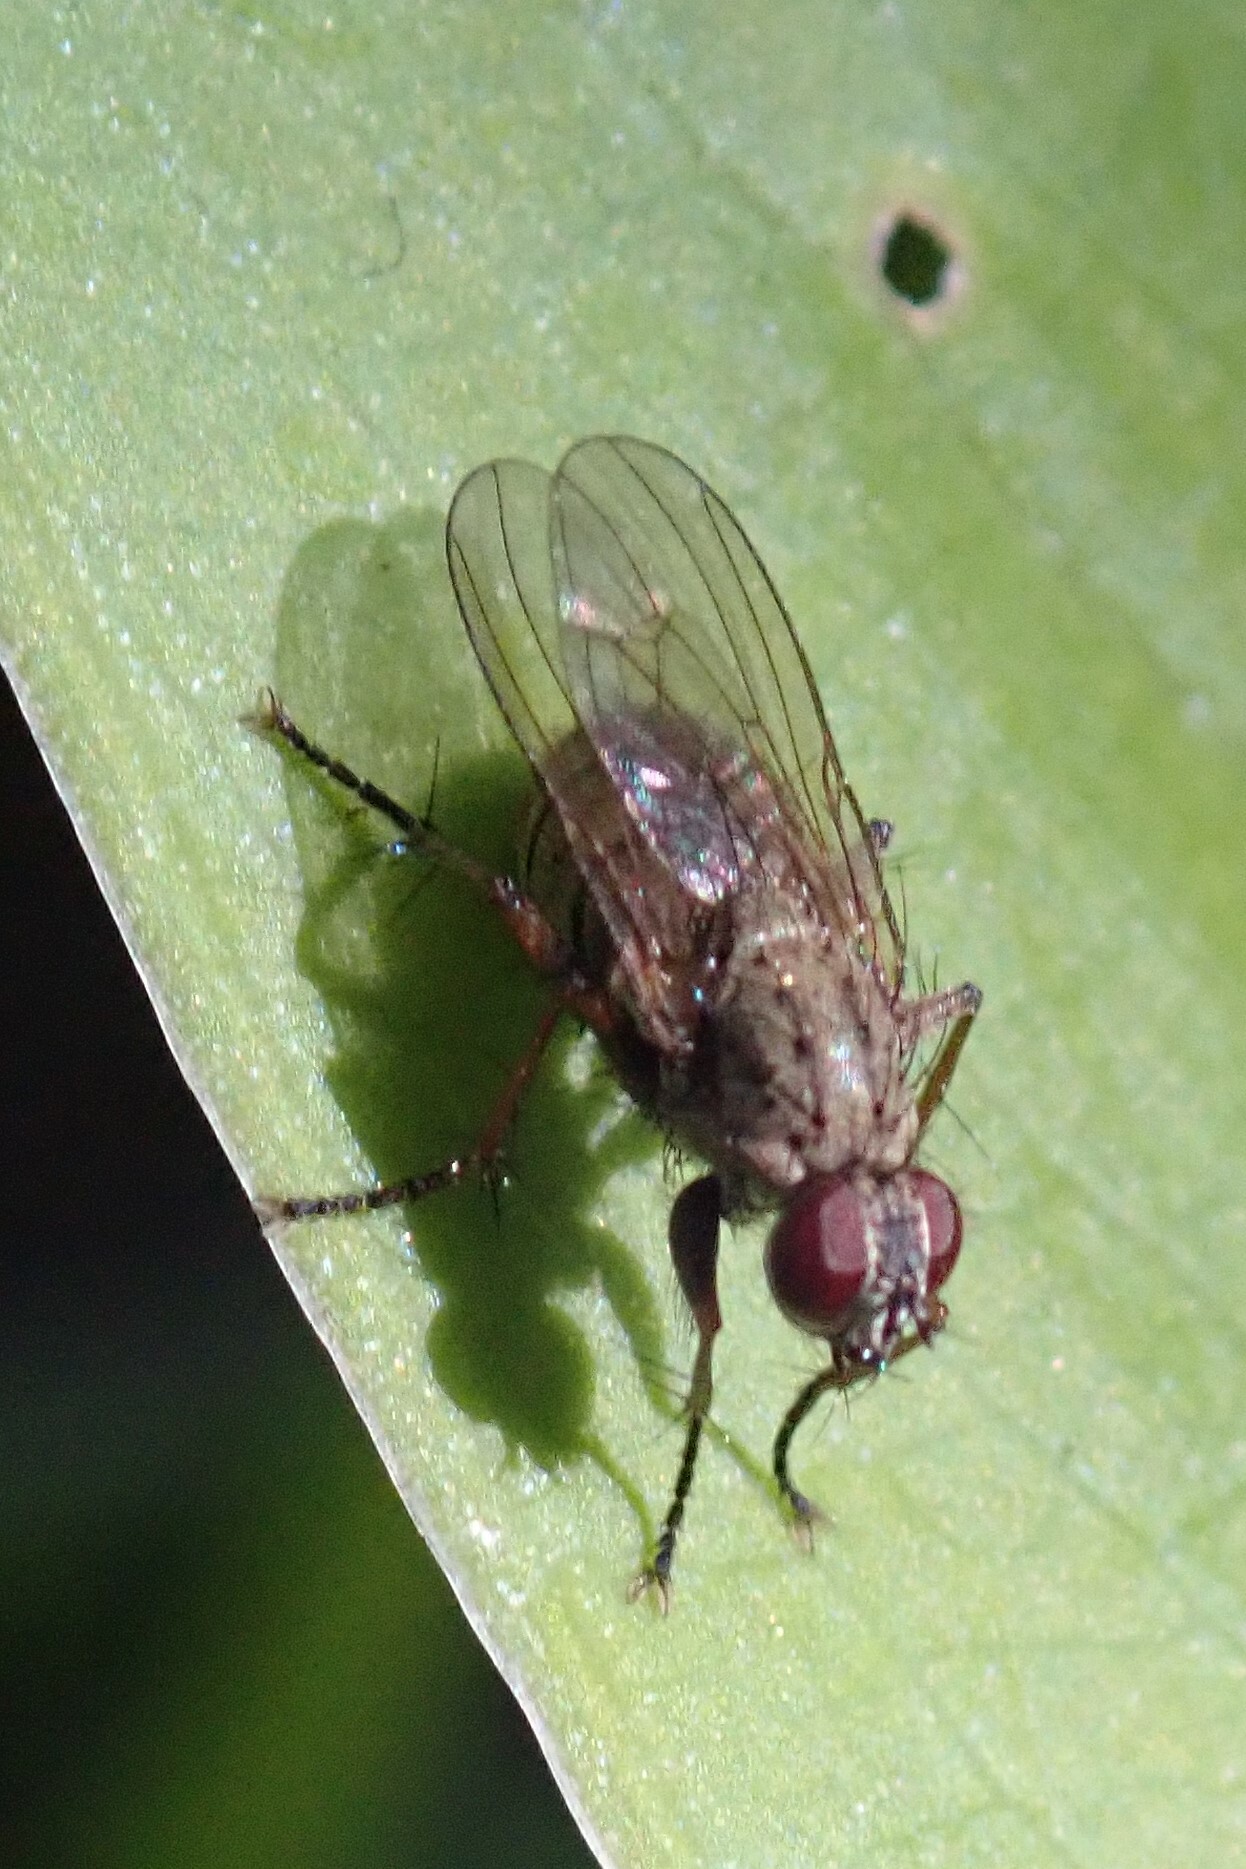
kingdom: Animalia
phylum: Arthropoda
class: Insecta
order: Diptera
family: Muscidae
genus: Coenosia
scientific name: Coenosia tigrina
